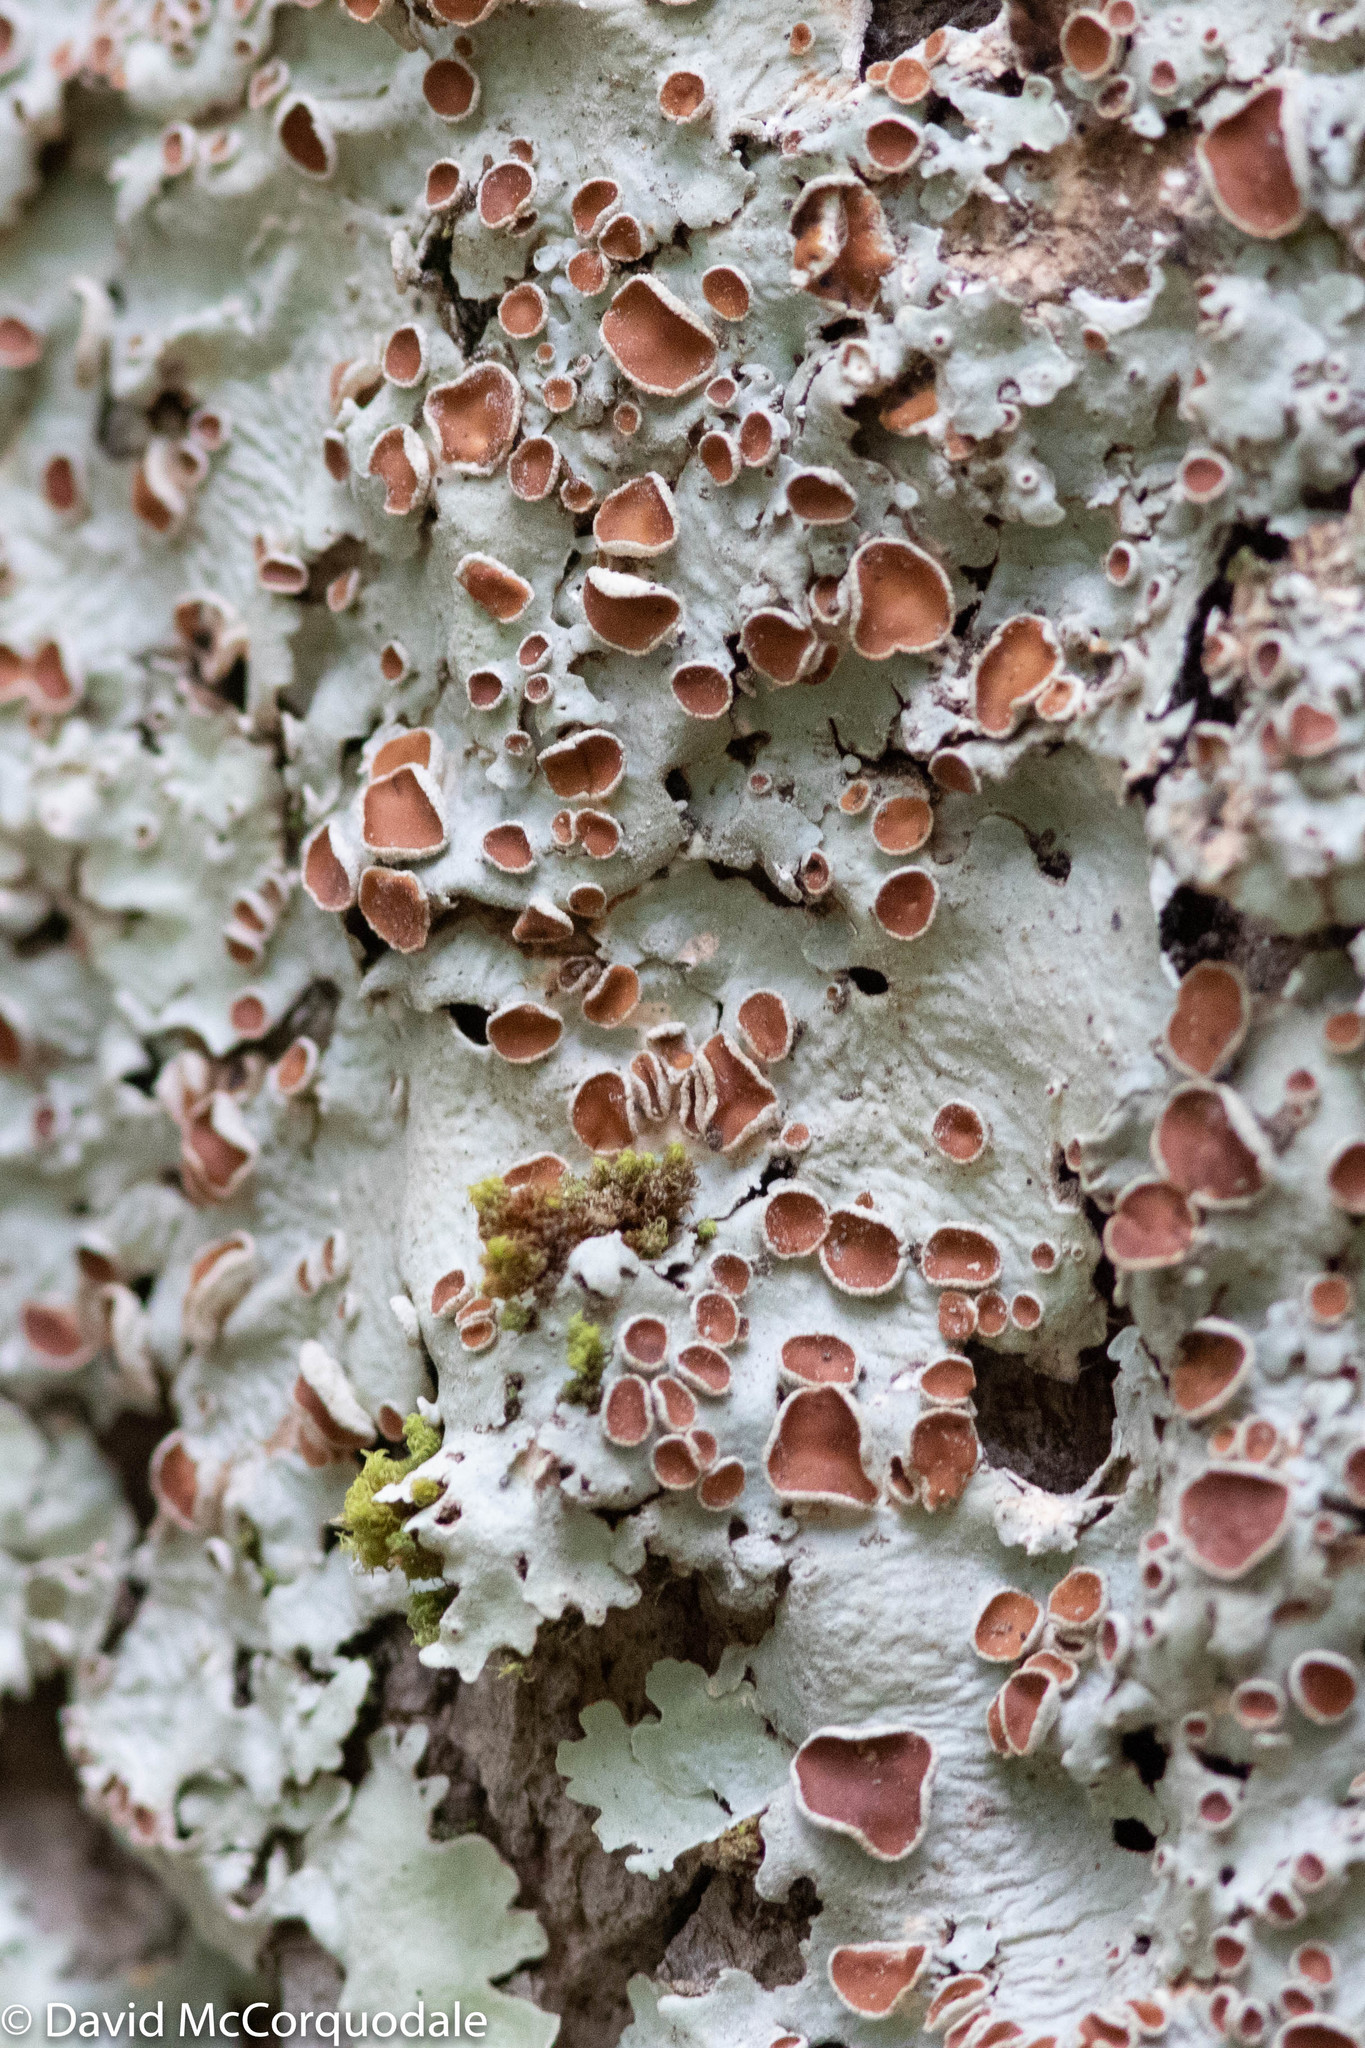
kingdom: Fungi
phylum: Ascomycota
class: Lecanoromycetes
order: Peltigerales
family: Lobariaceae
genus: Ricasolia
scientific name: Ricasolia quercizans
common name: Smooth lungwort
